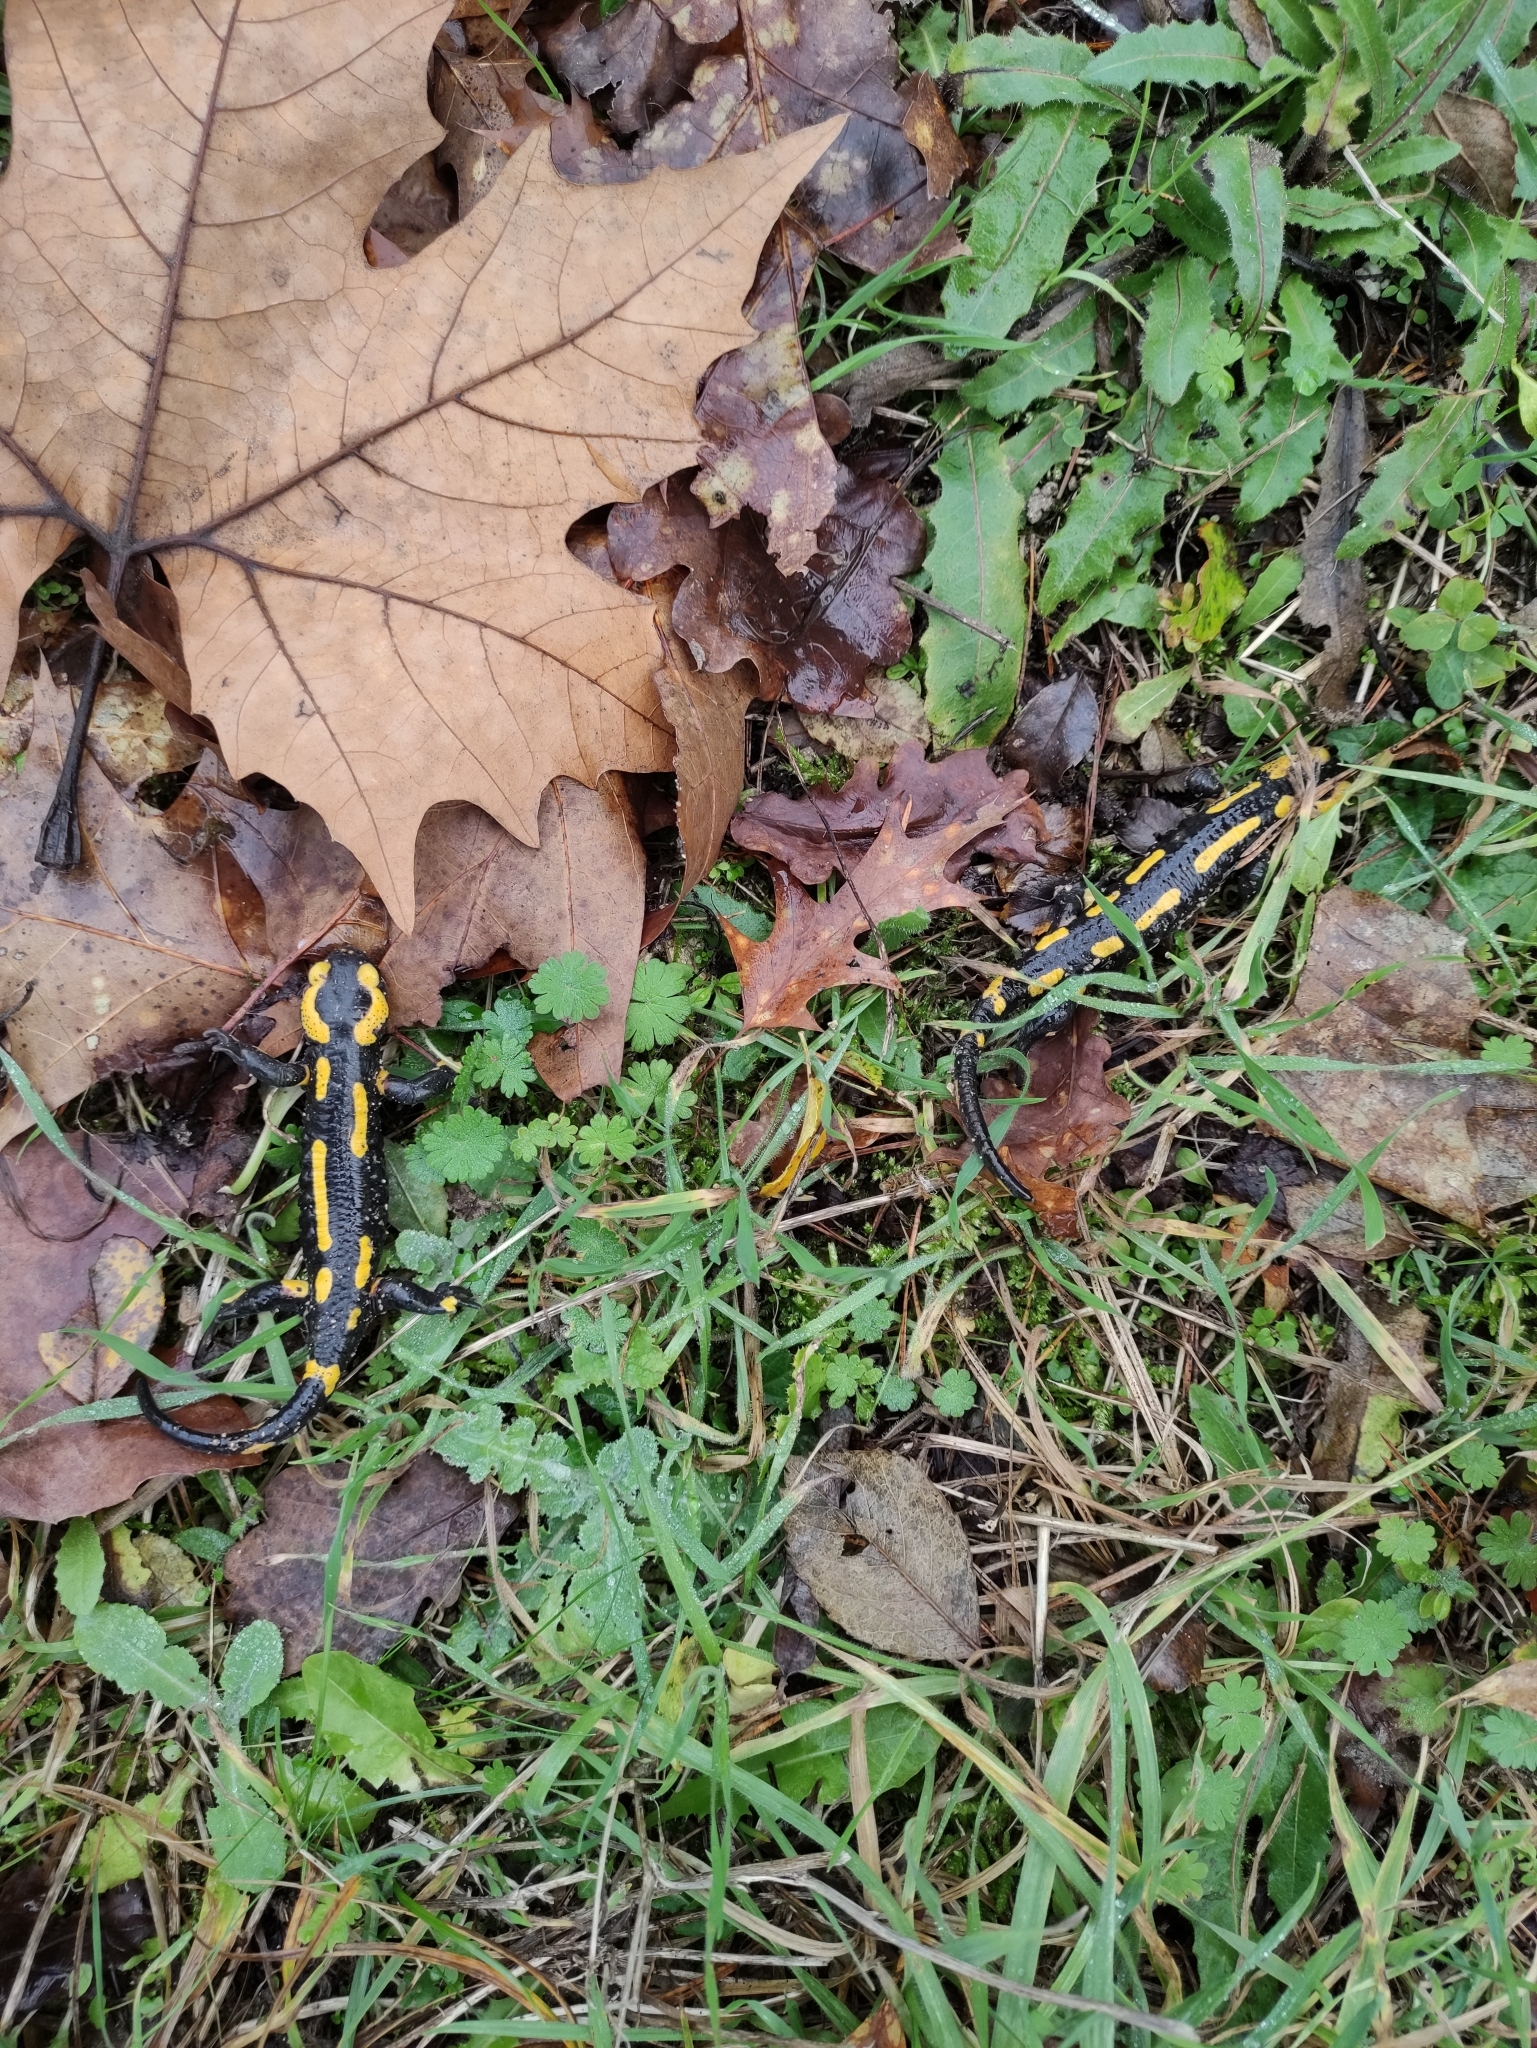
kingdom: Animalia
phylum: Chordata
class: Amphibia
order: Caudata
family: Salamandridae
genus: Salamandra
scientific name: Salamandra salamandra
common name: Fire salamander
